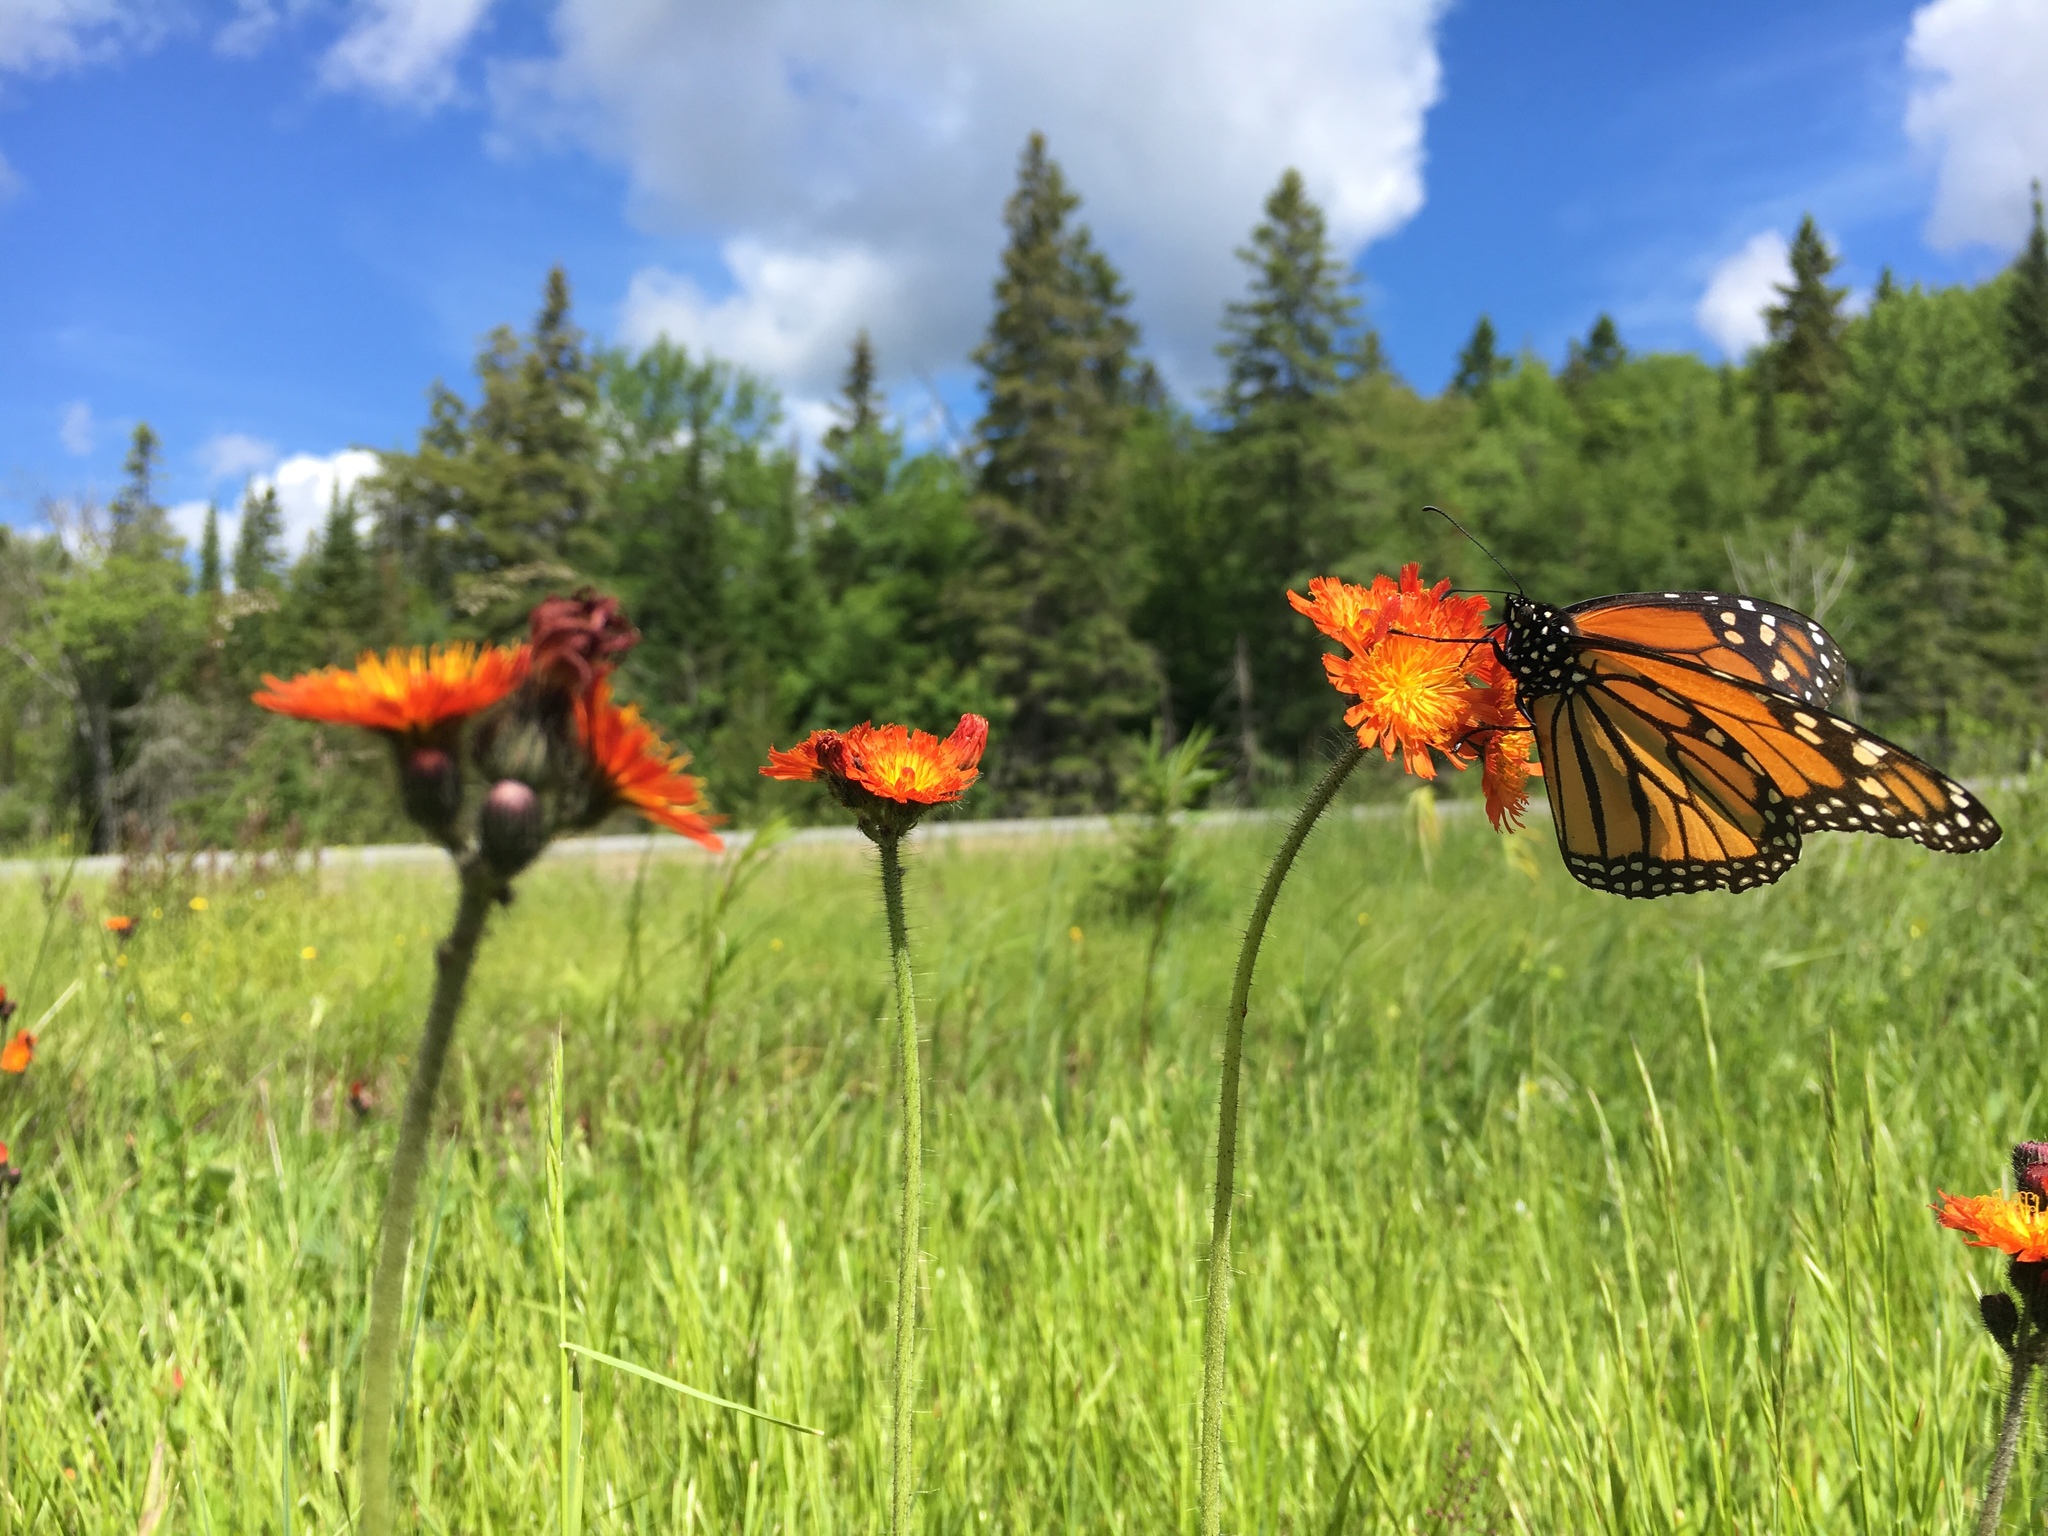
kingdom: Animalia
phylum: Arthropoda
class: Insecta
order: Lepidoptera
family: Nymphalidae
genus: Danaus
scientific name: Danaus plexippus
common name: Monarch
